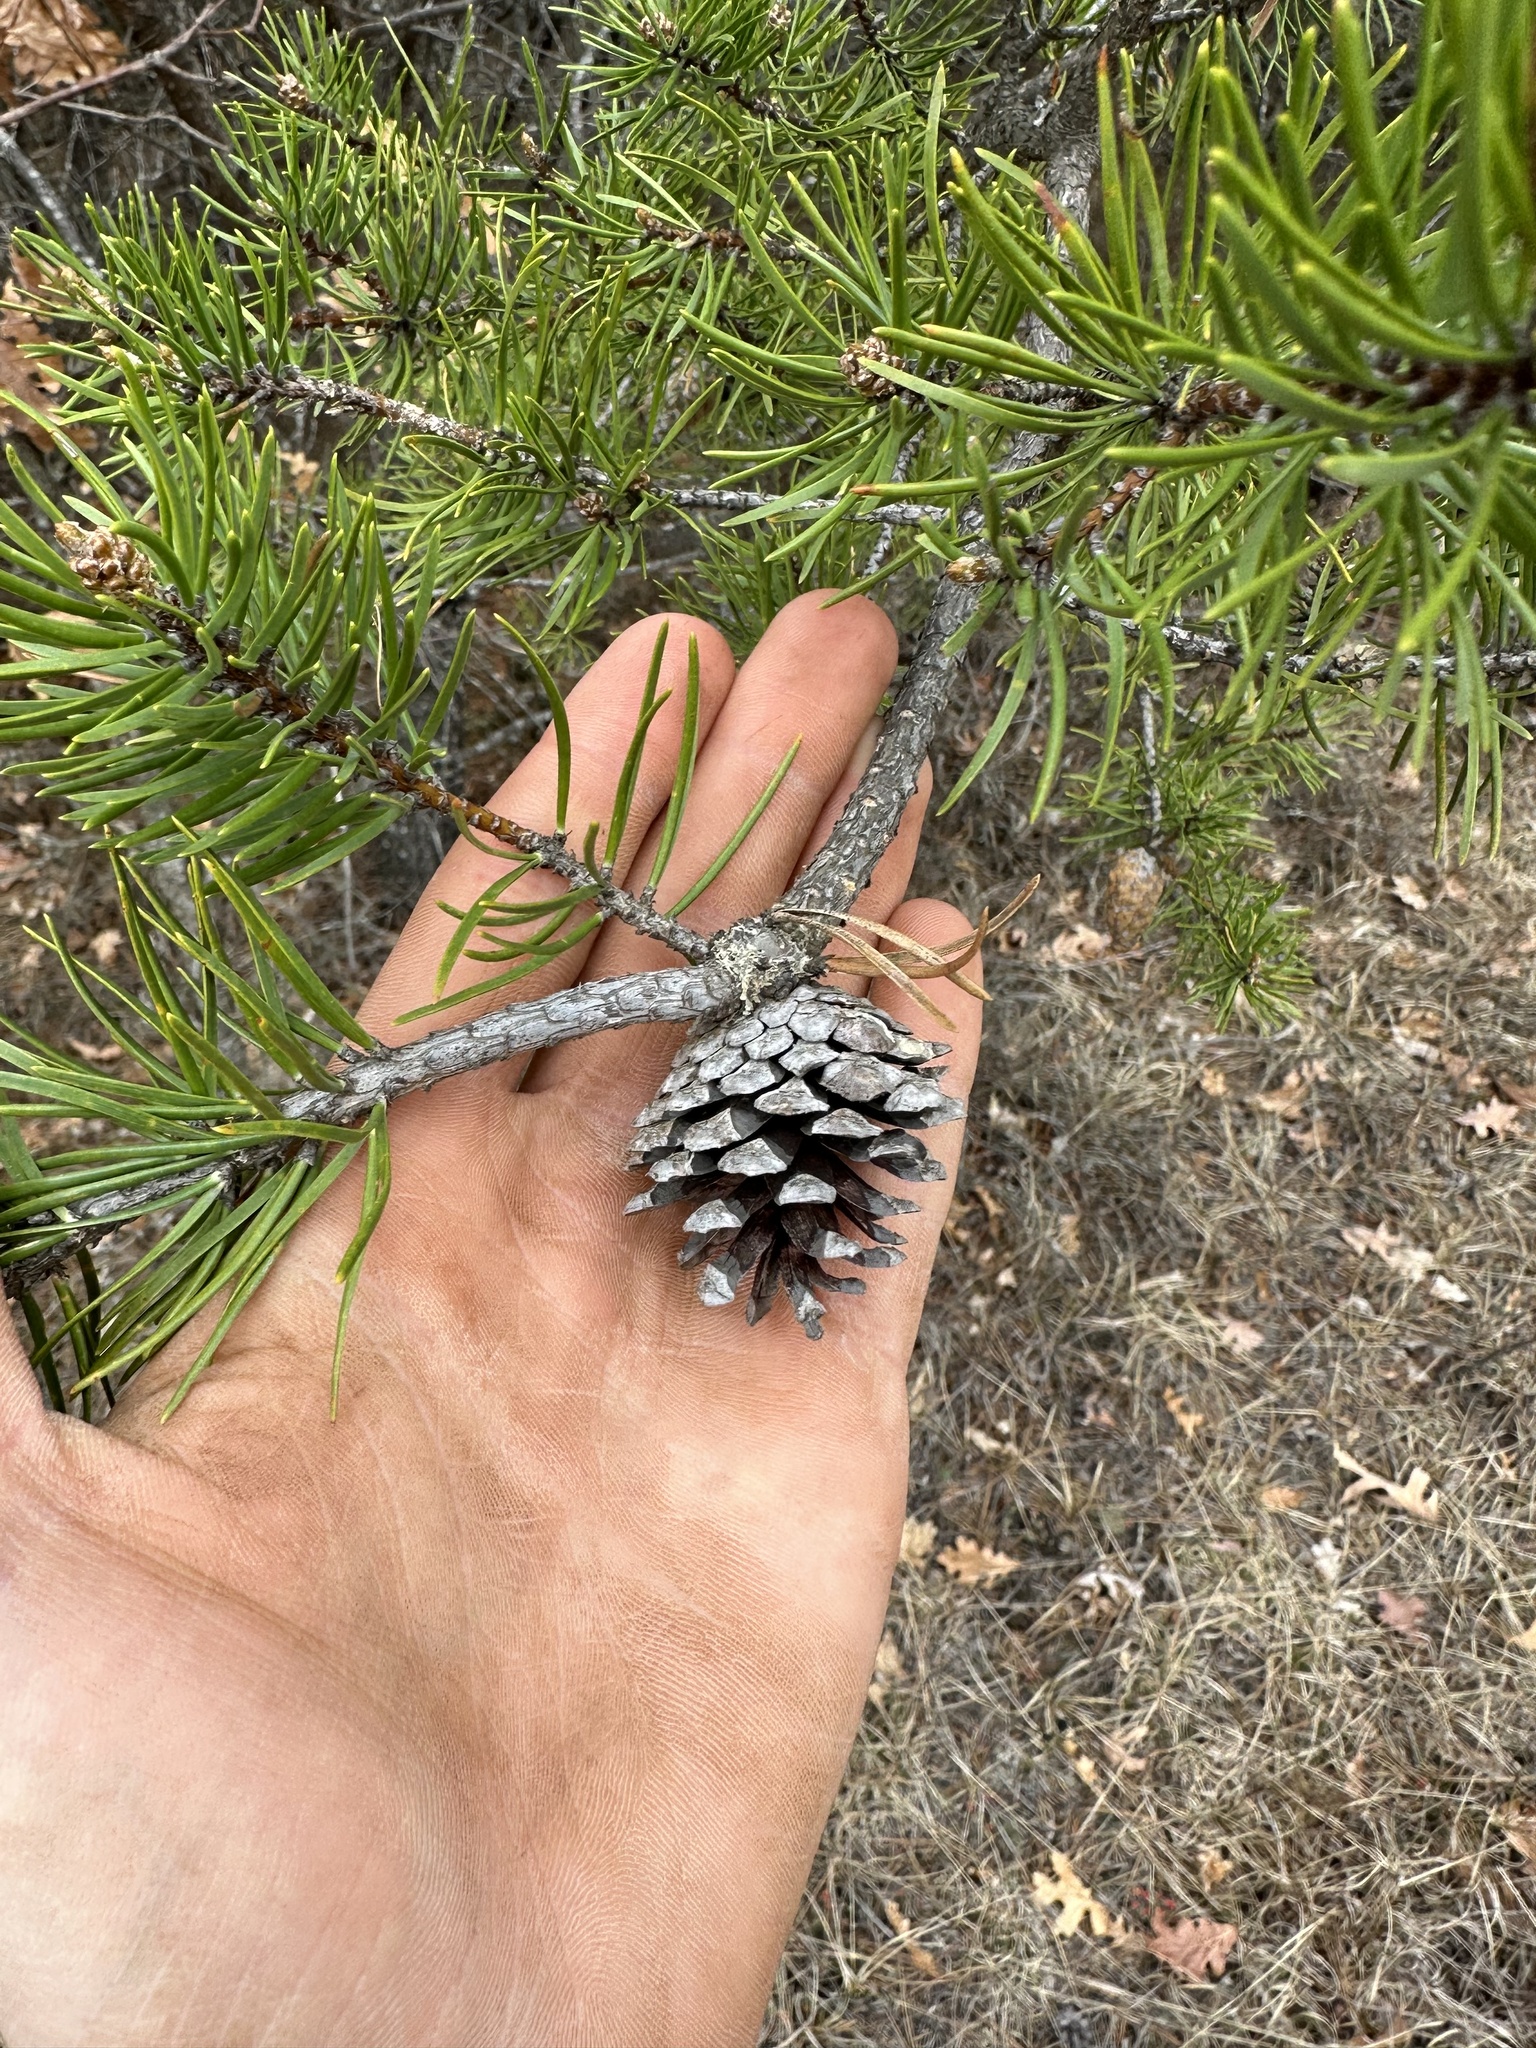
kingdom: Plantae
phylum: Tracheophyta
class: Pinopsida
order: Pinales
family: Pinaceae
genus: Pinus
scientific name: Pinus banksiana
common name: Jack pine
